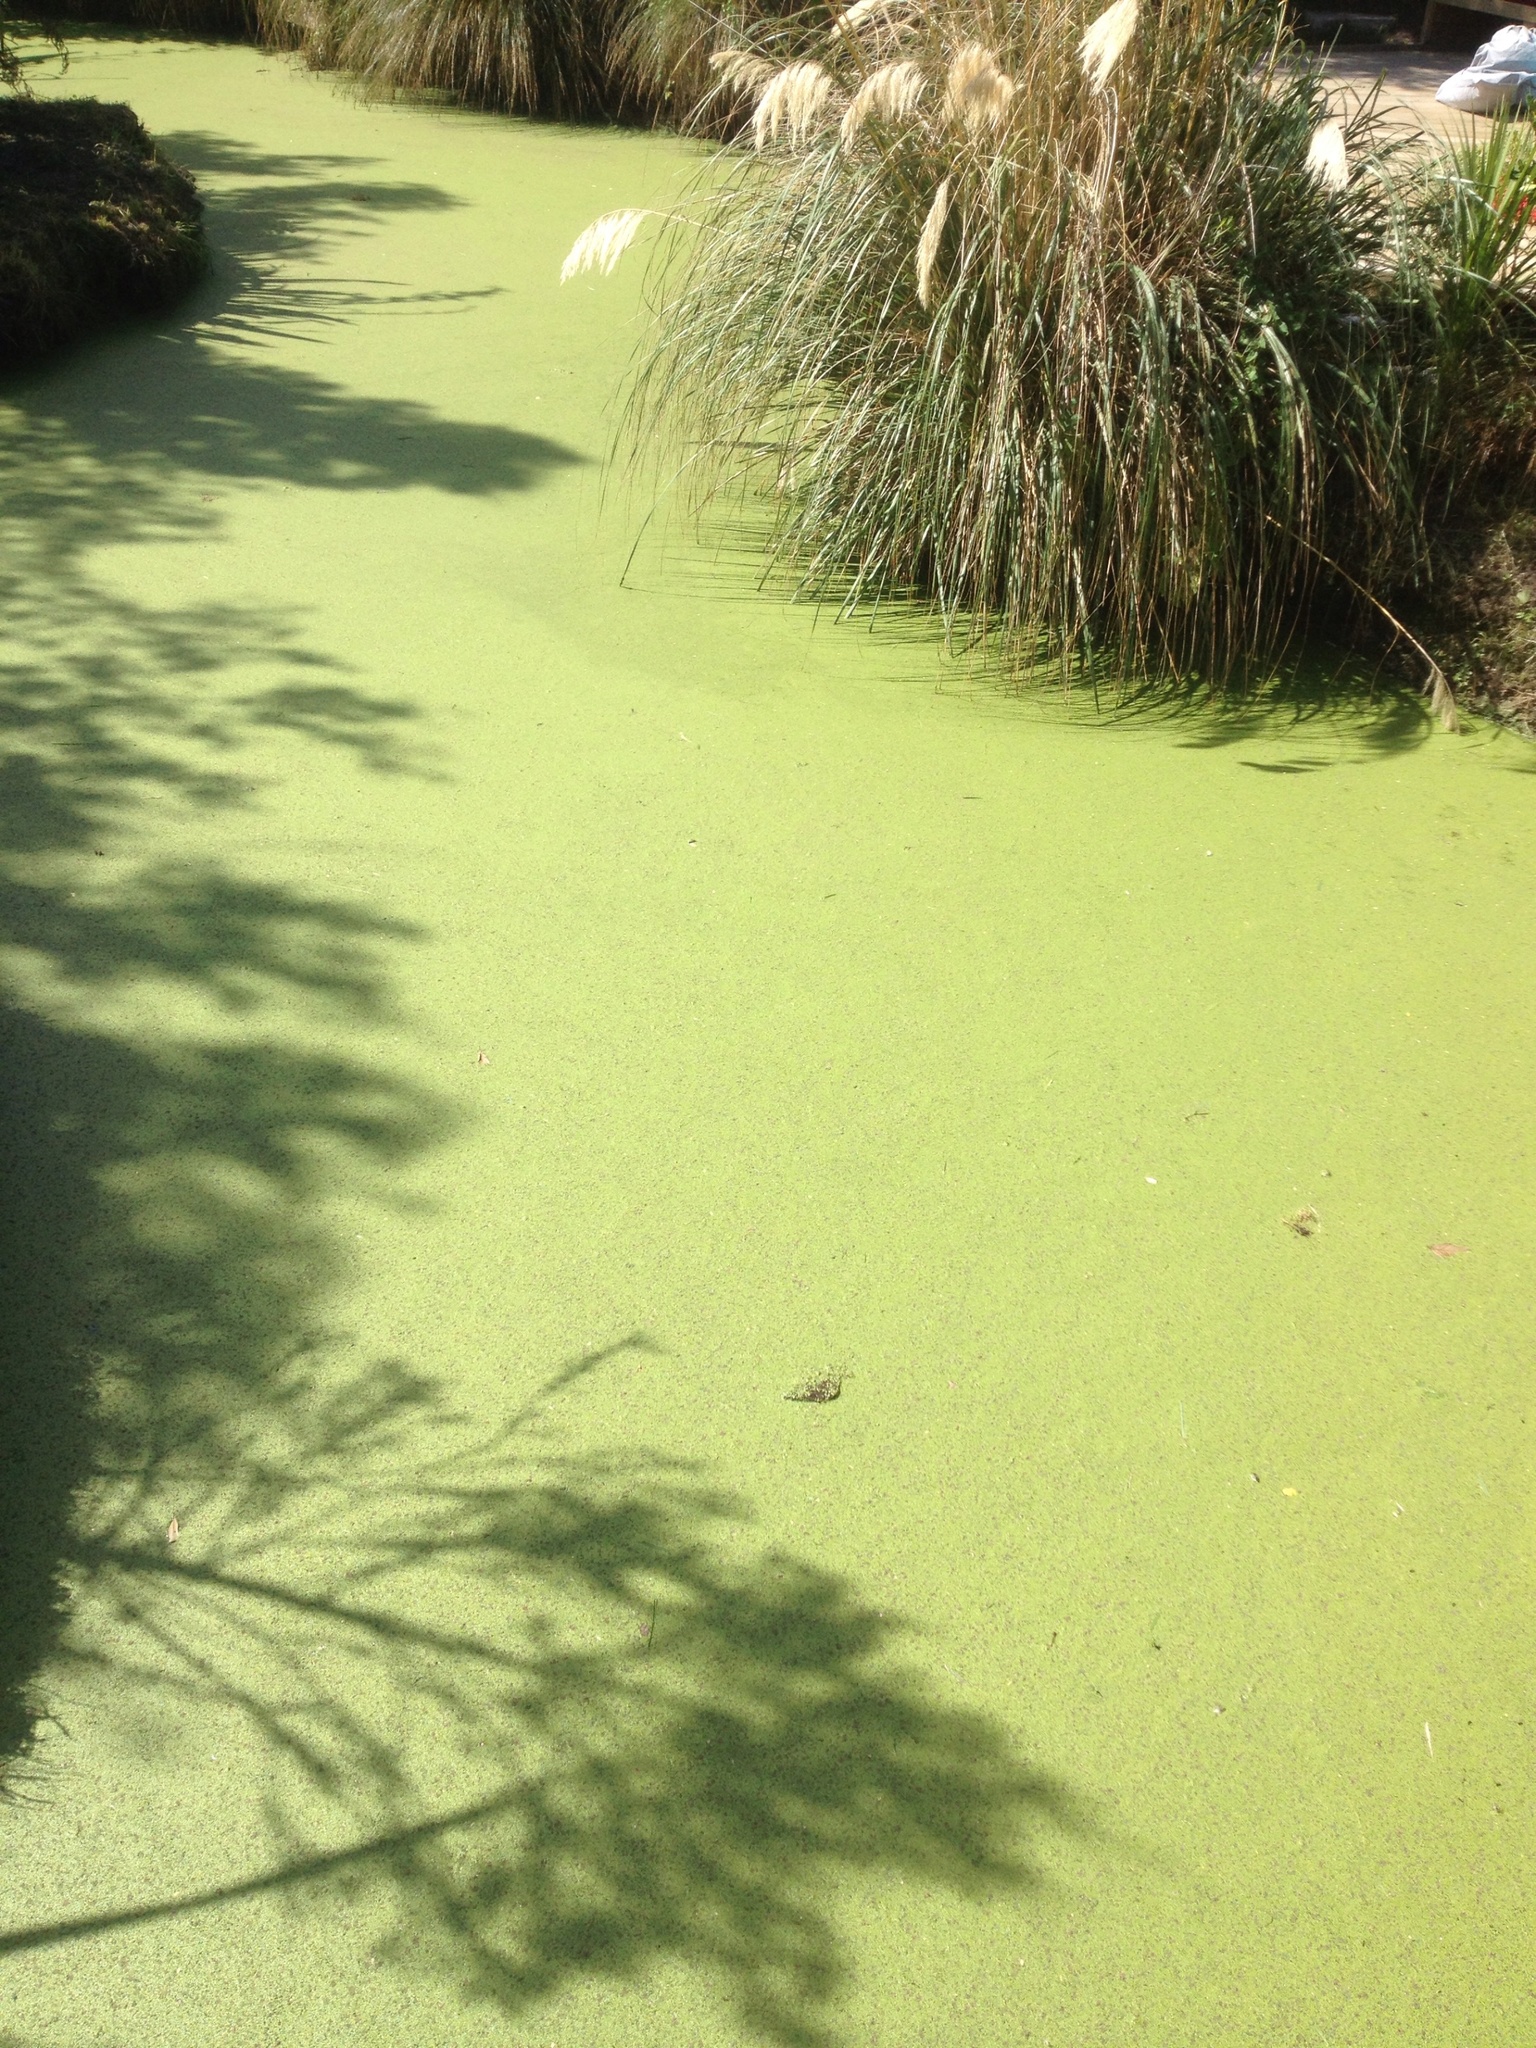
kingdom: Plantae
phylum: Tracheophyta
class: Liliopsida
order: Alismatales
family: Araceae
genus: Lemna
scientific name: Lemna
